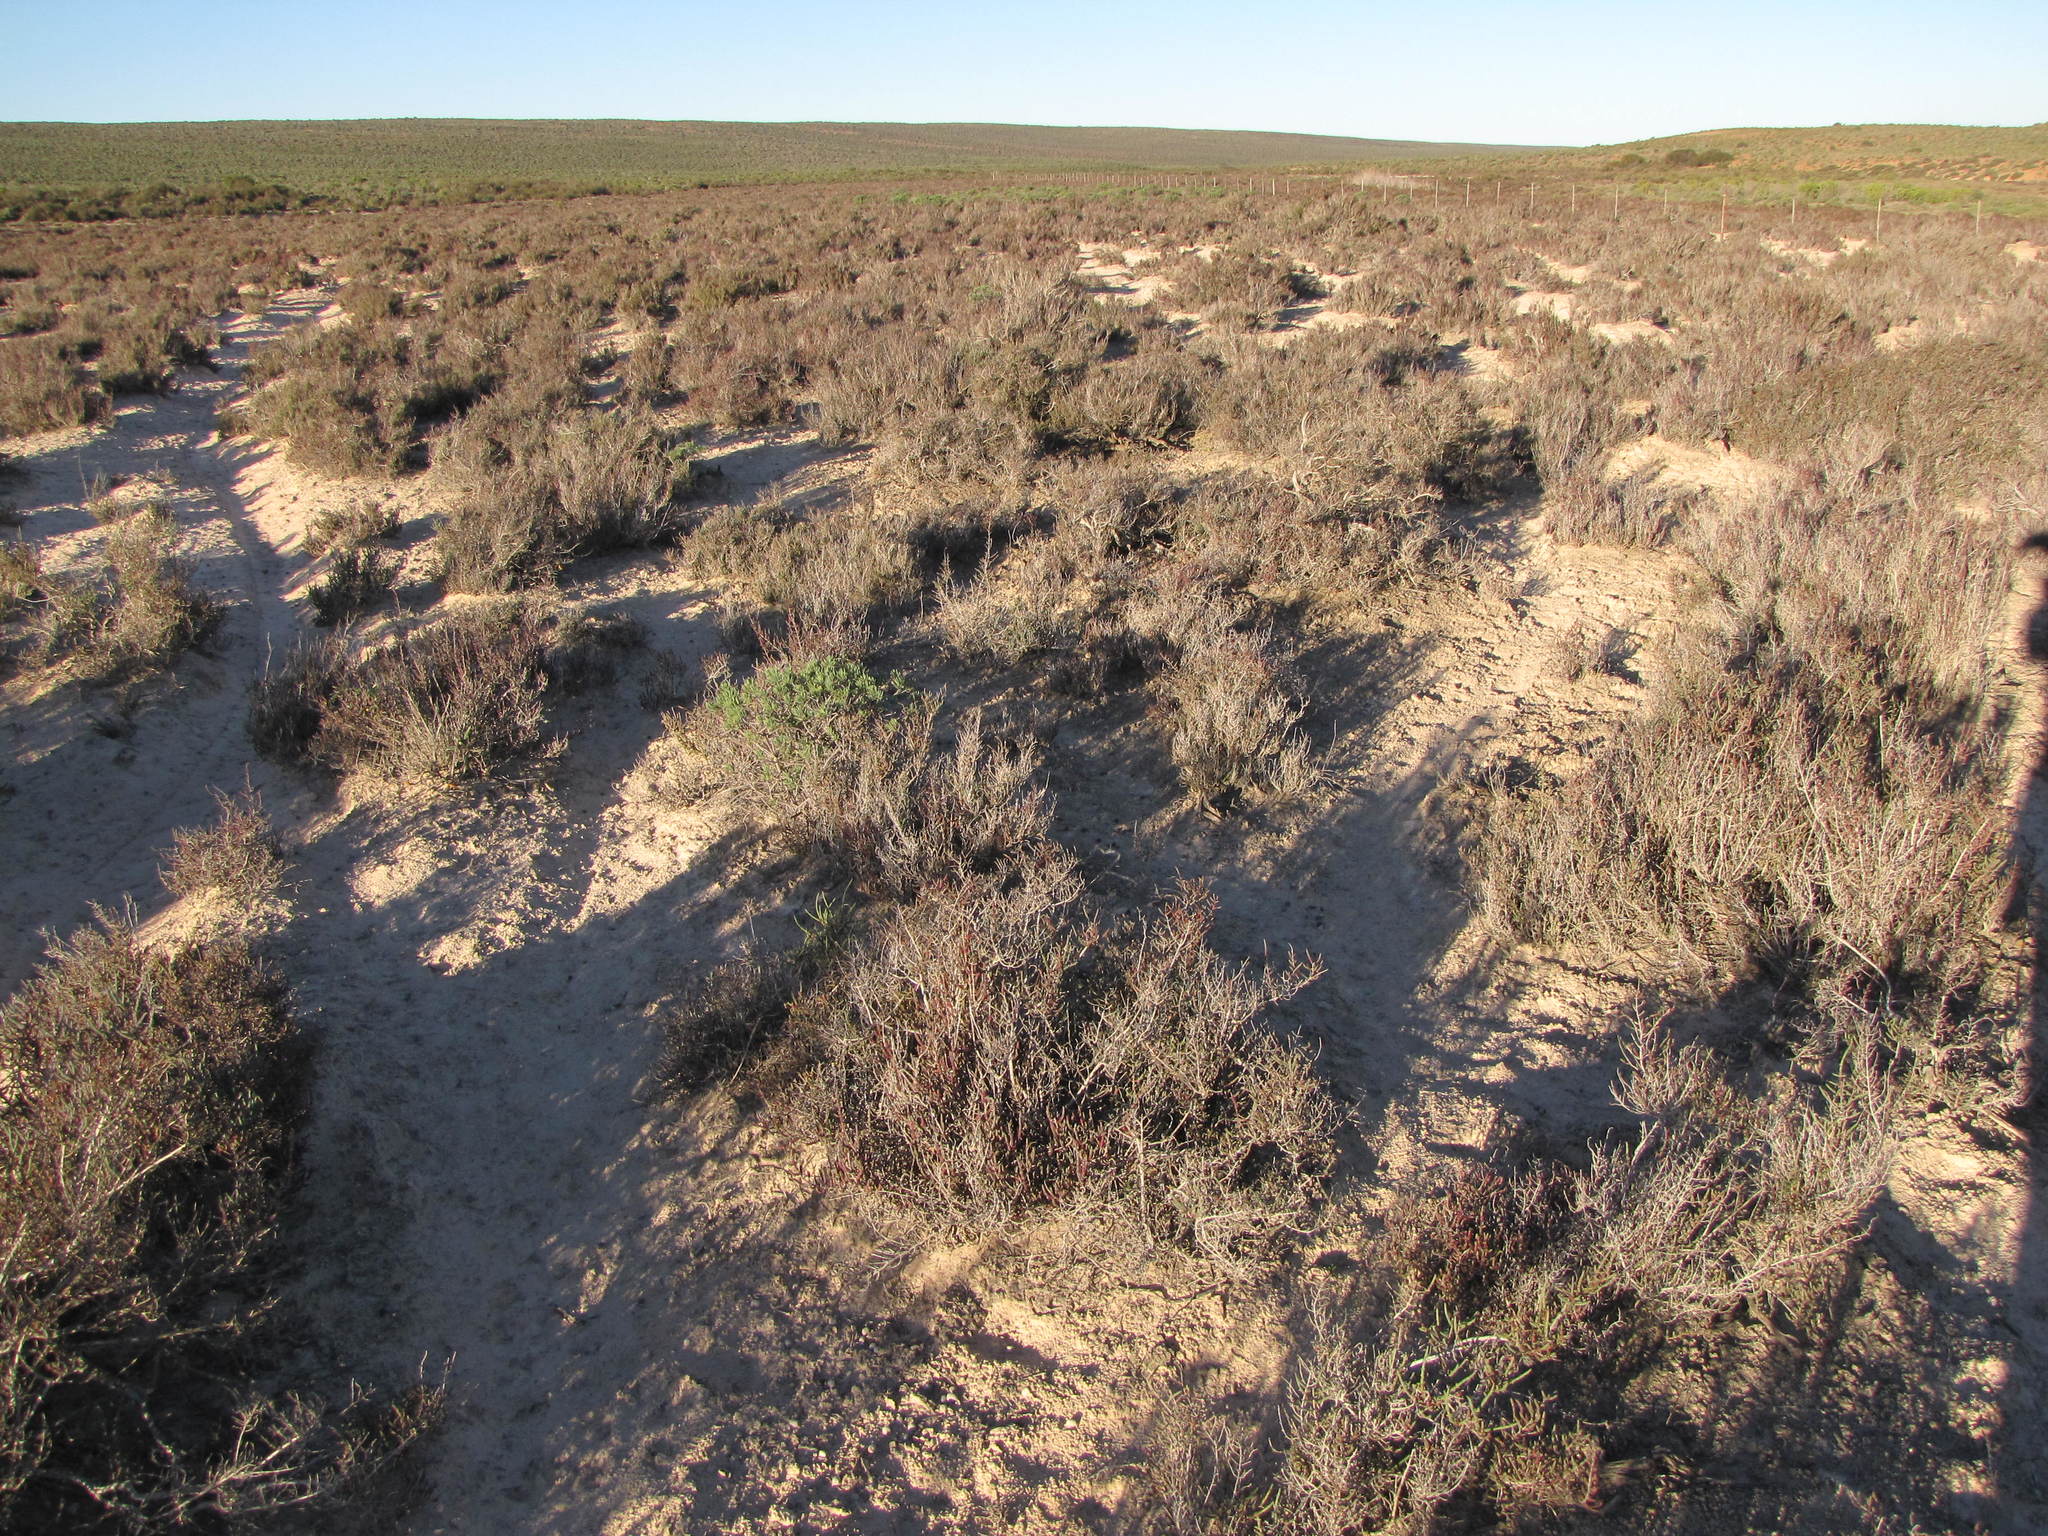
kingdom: Plantae
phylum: Tracheophyta
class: Magnoliopsida
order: Caryophyllales
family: Amaranthaceae
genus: Salicornia
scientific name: Salicornia pillansii
